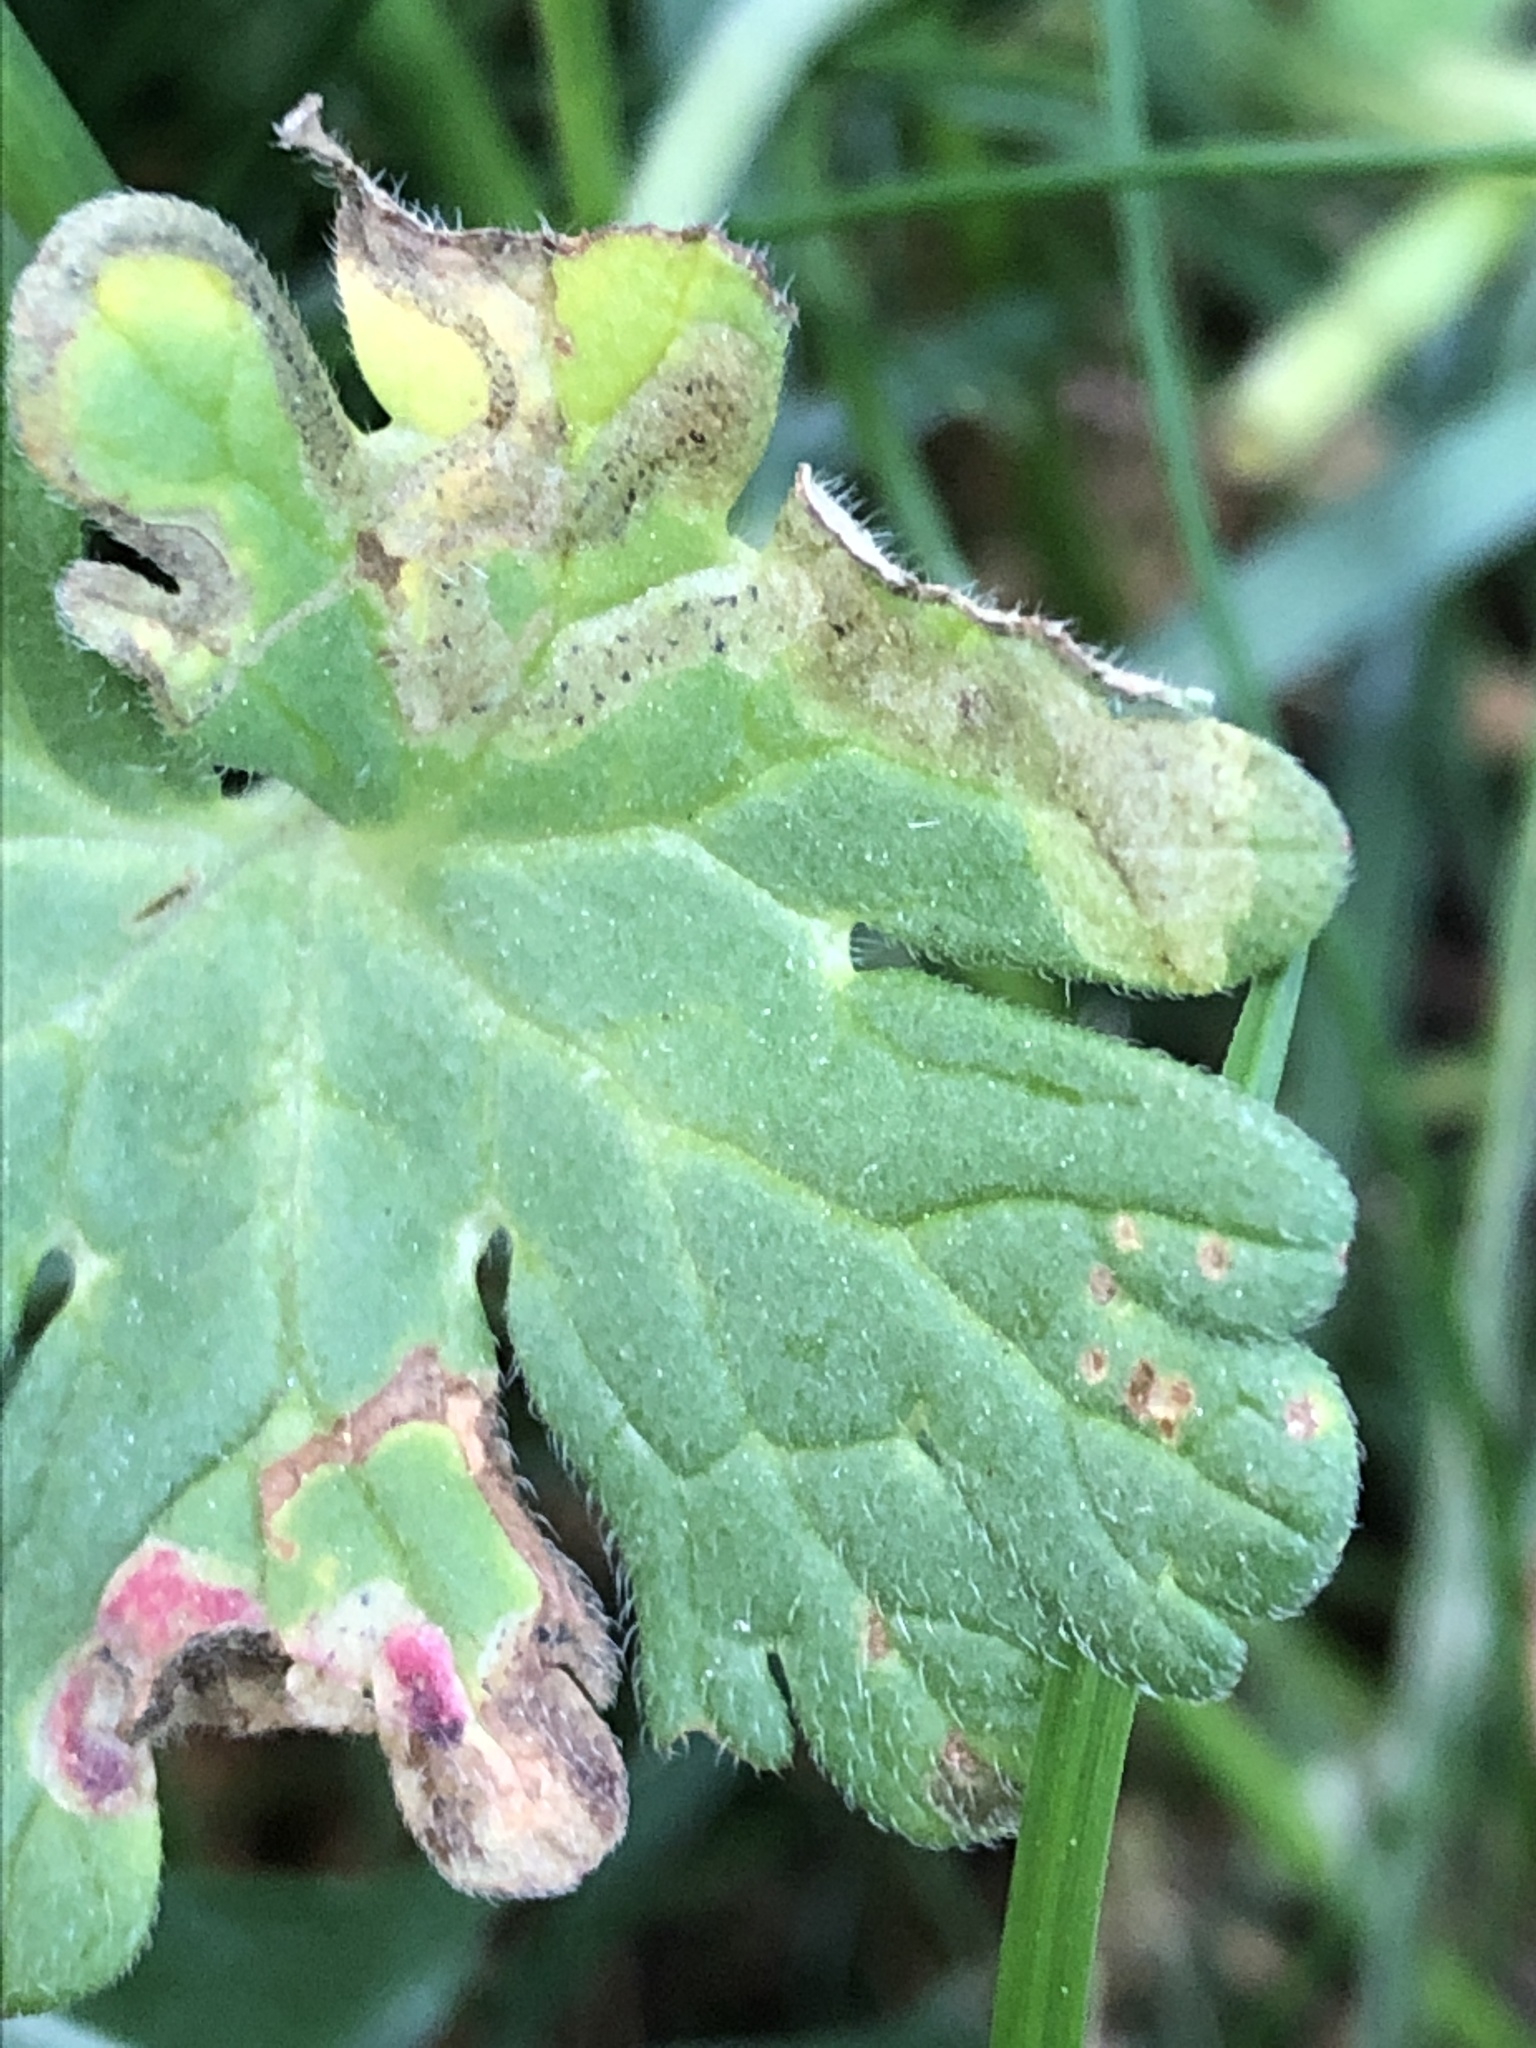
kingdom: Animalia
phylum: Arthropoda
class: Insecta
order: Diptera
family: Agromyzidae
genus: Agromyza
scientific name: Agromyza nigrescens
